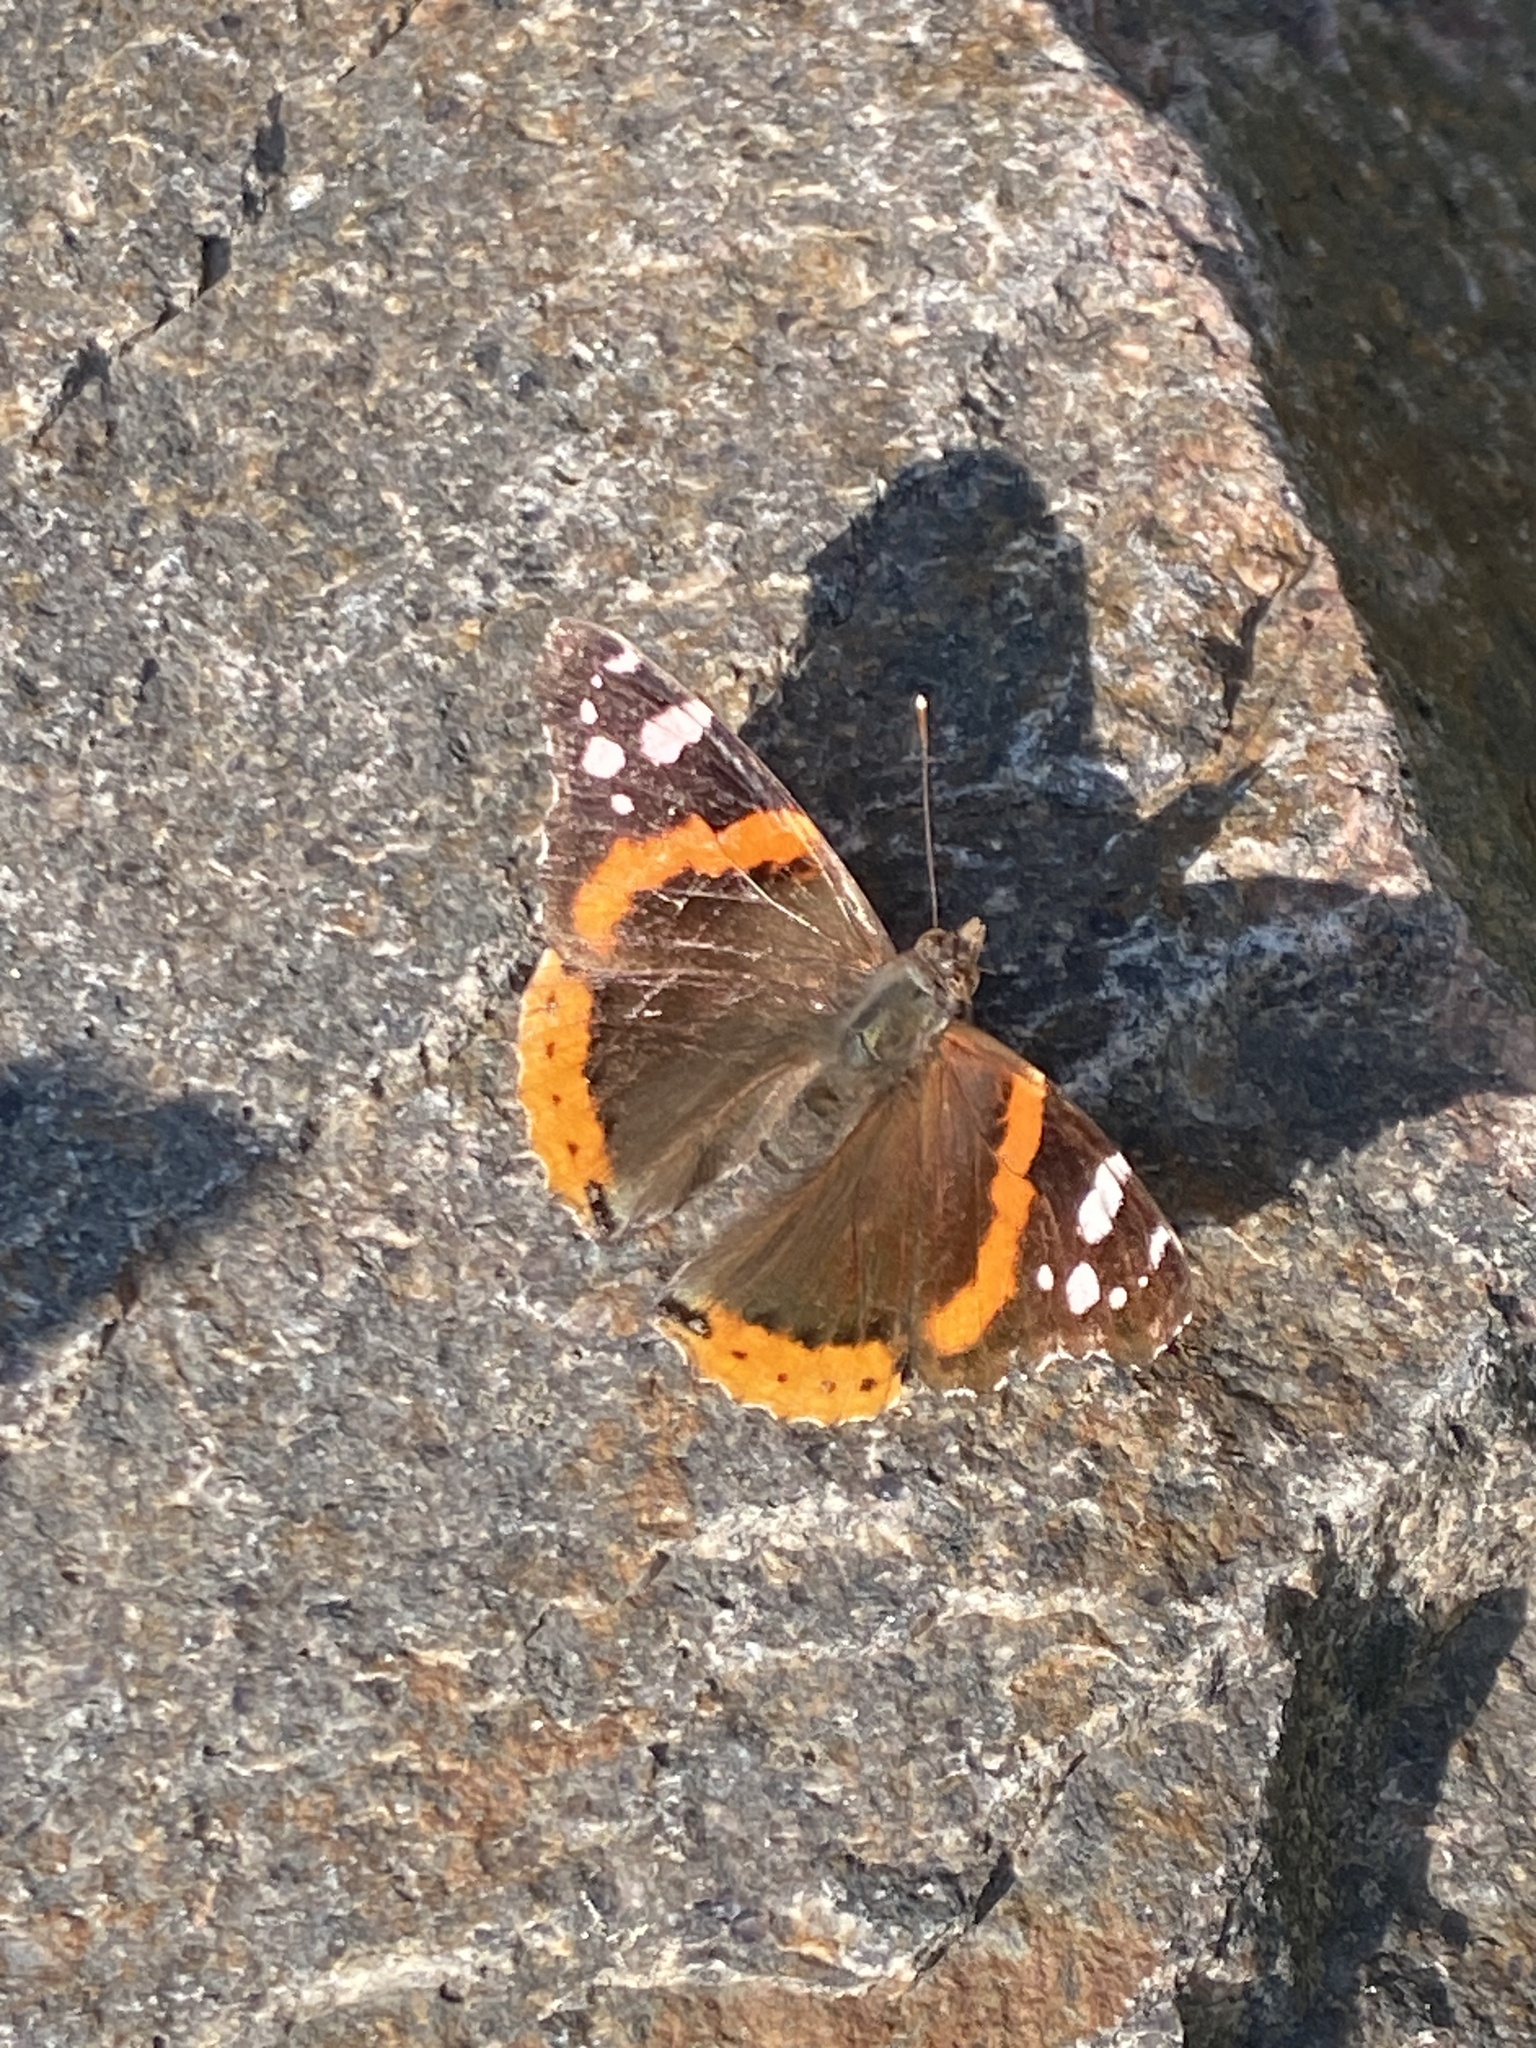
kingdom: Animalia
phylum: Arthropoda
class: Insecta
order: Lepidoptera
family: Nymphalidae
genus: Vanessa
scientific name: Vanessa atalanta
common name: Red admiral
